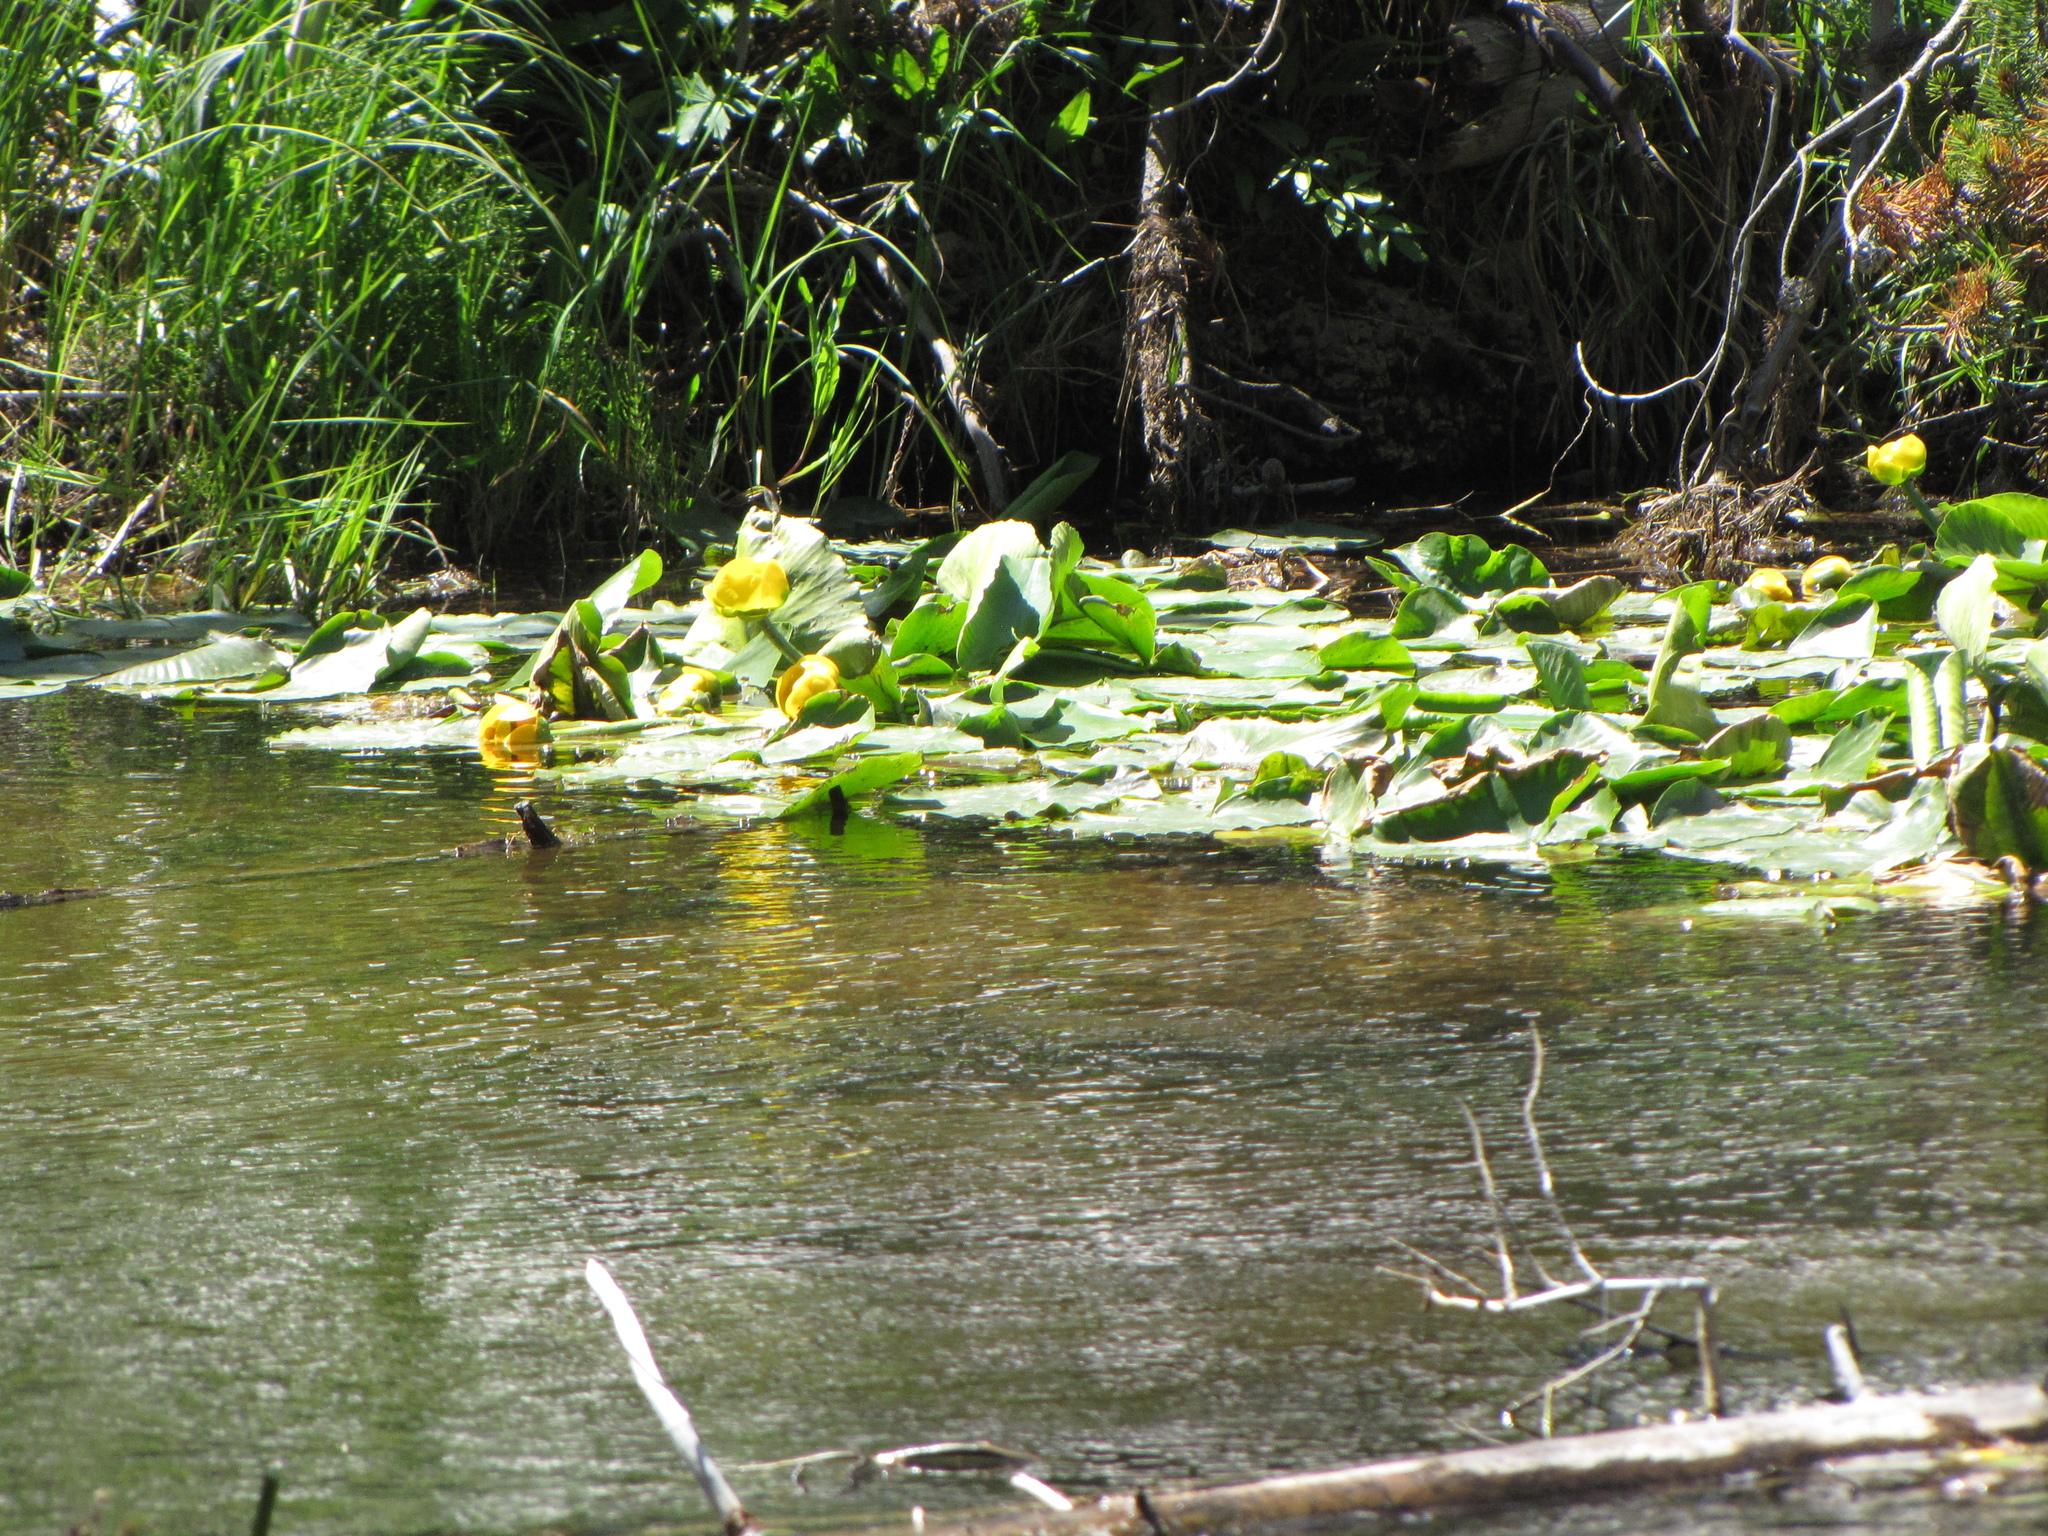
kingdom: Plantae
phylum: Tracheophyta
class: Magnoliopsida
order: Nymphaeales
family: Nymphaeaceae
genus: Nuphar
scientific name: Nuphar polysepala
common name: Rocky mountain cow-lily
